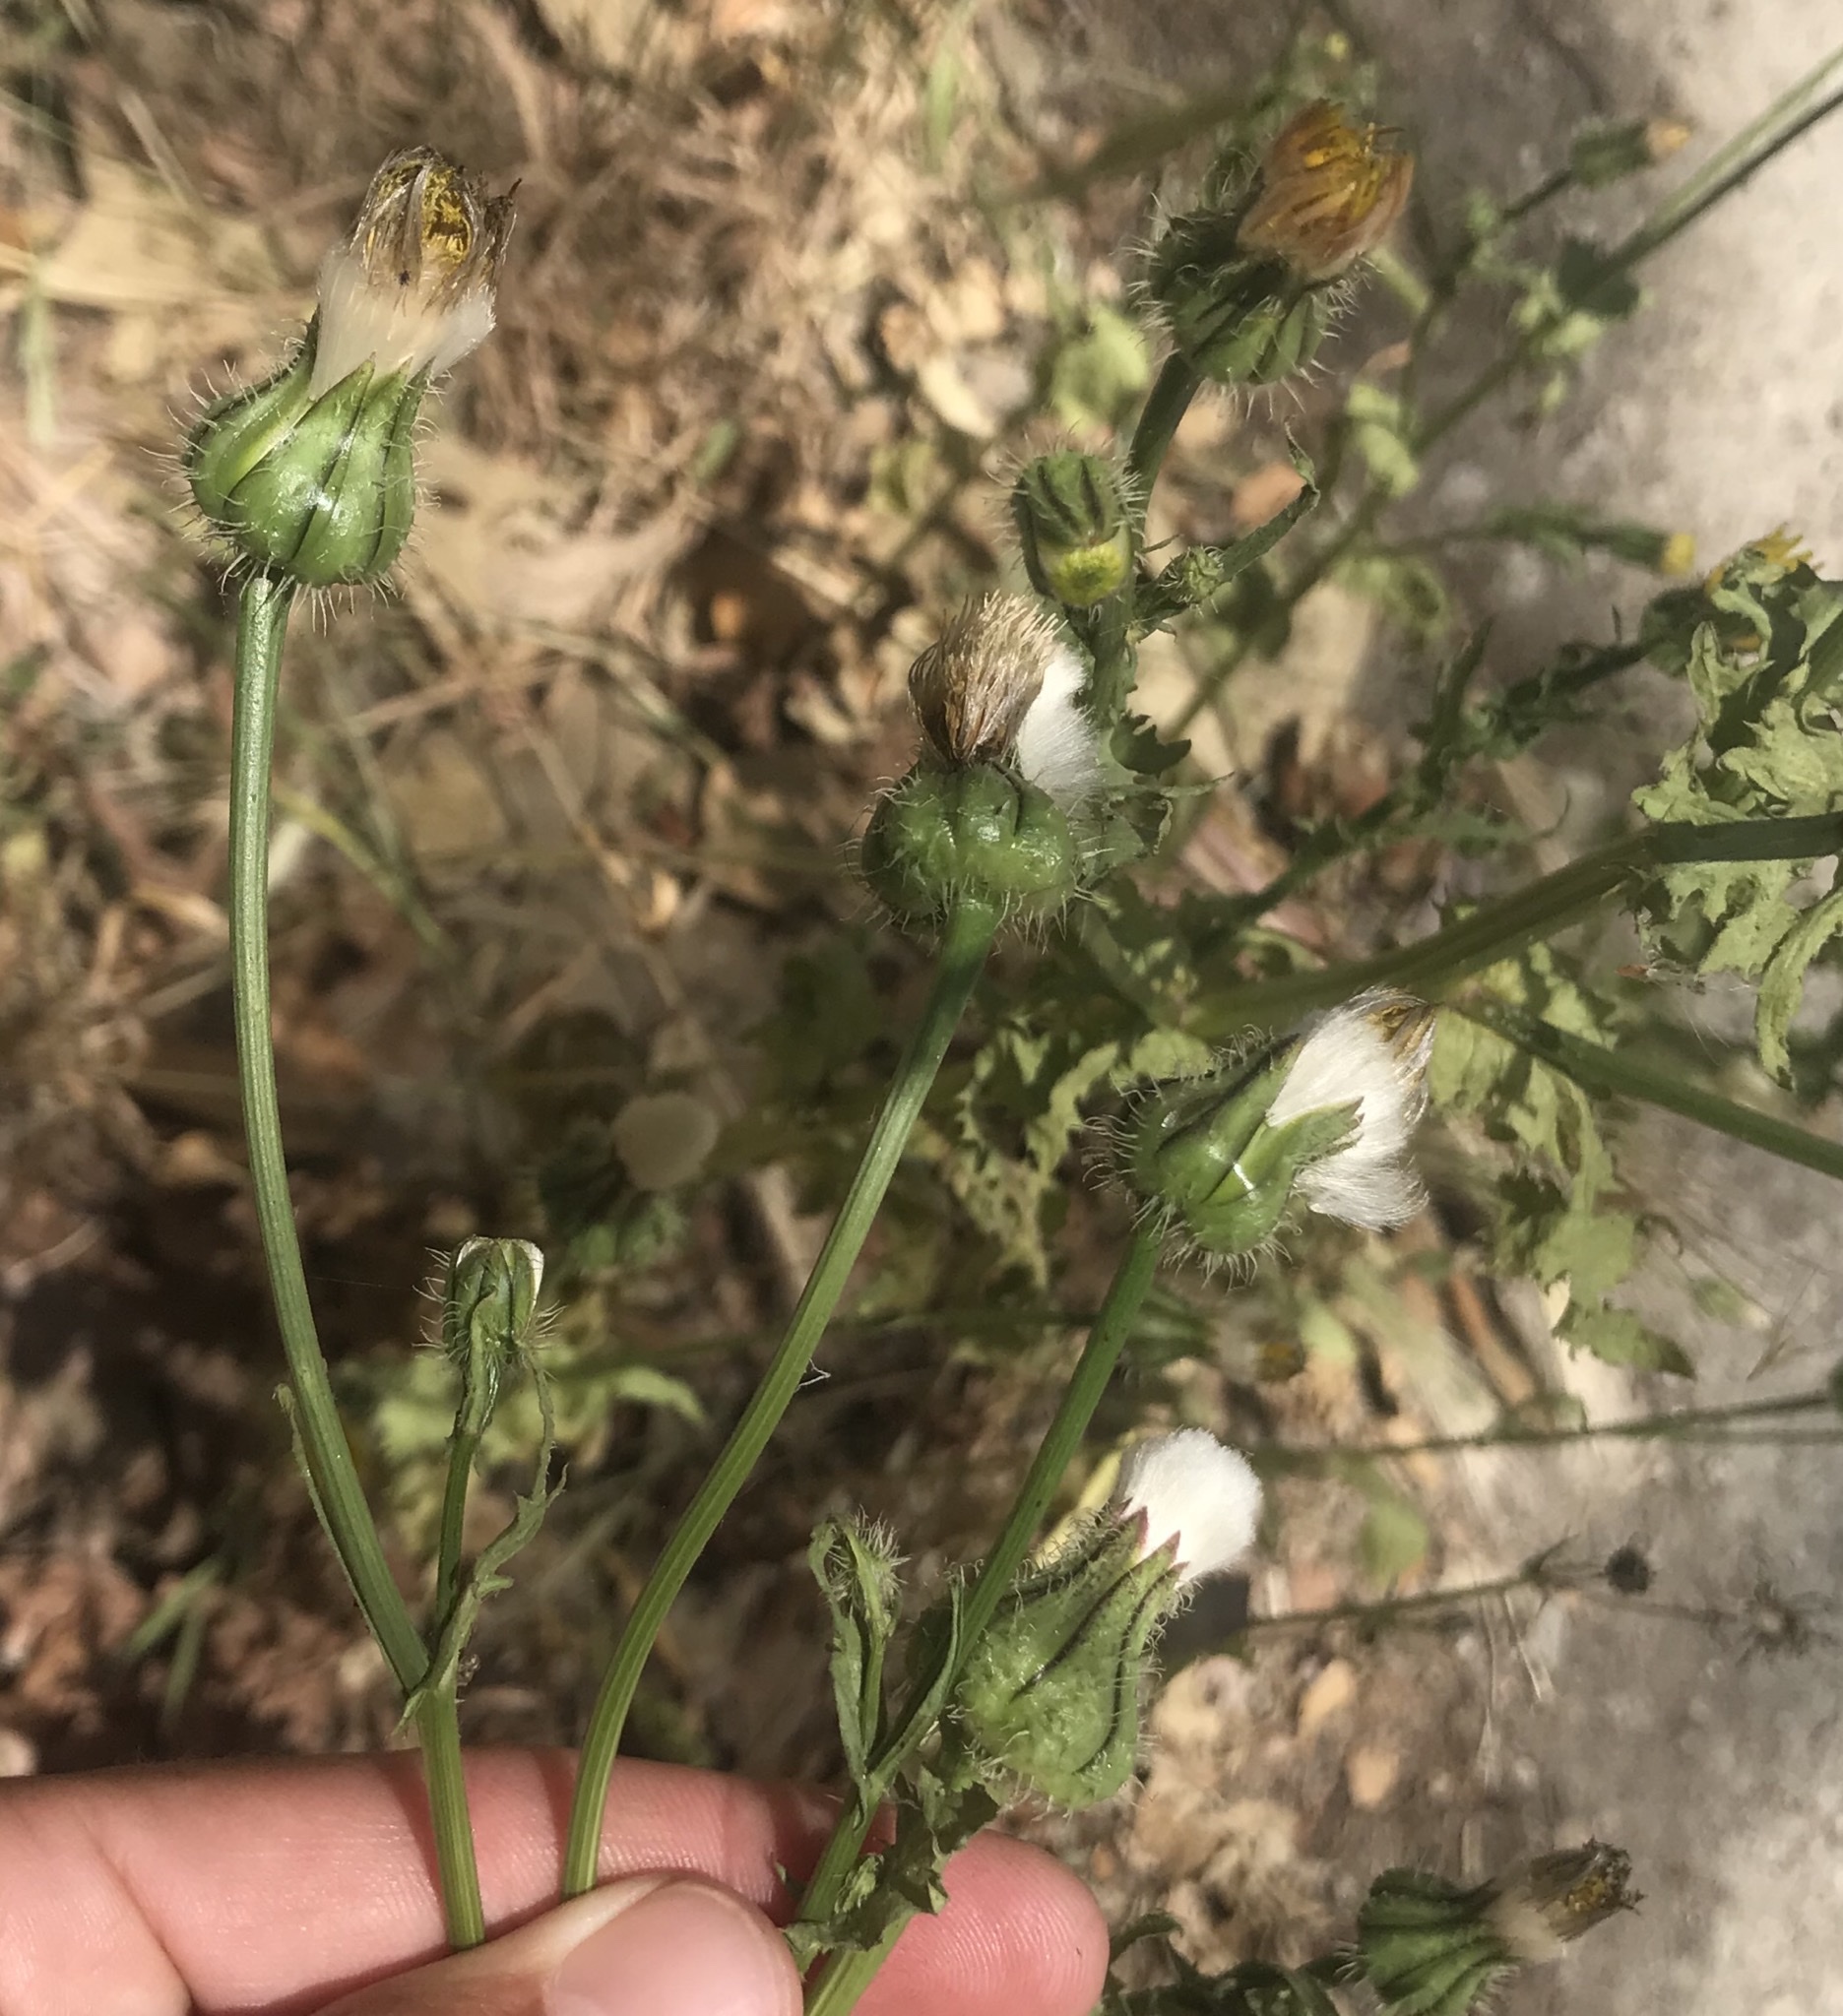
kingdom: Plantae
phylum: Tracheophyta
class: Magnoliopsida
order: Asterales
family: Asteraceae
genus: Urospermum
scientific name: Urospermum picroides
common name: False hawkbit
